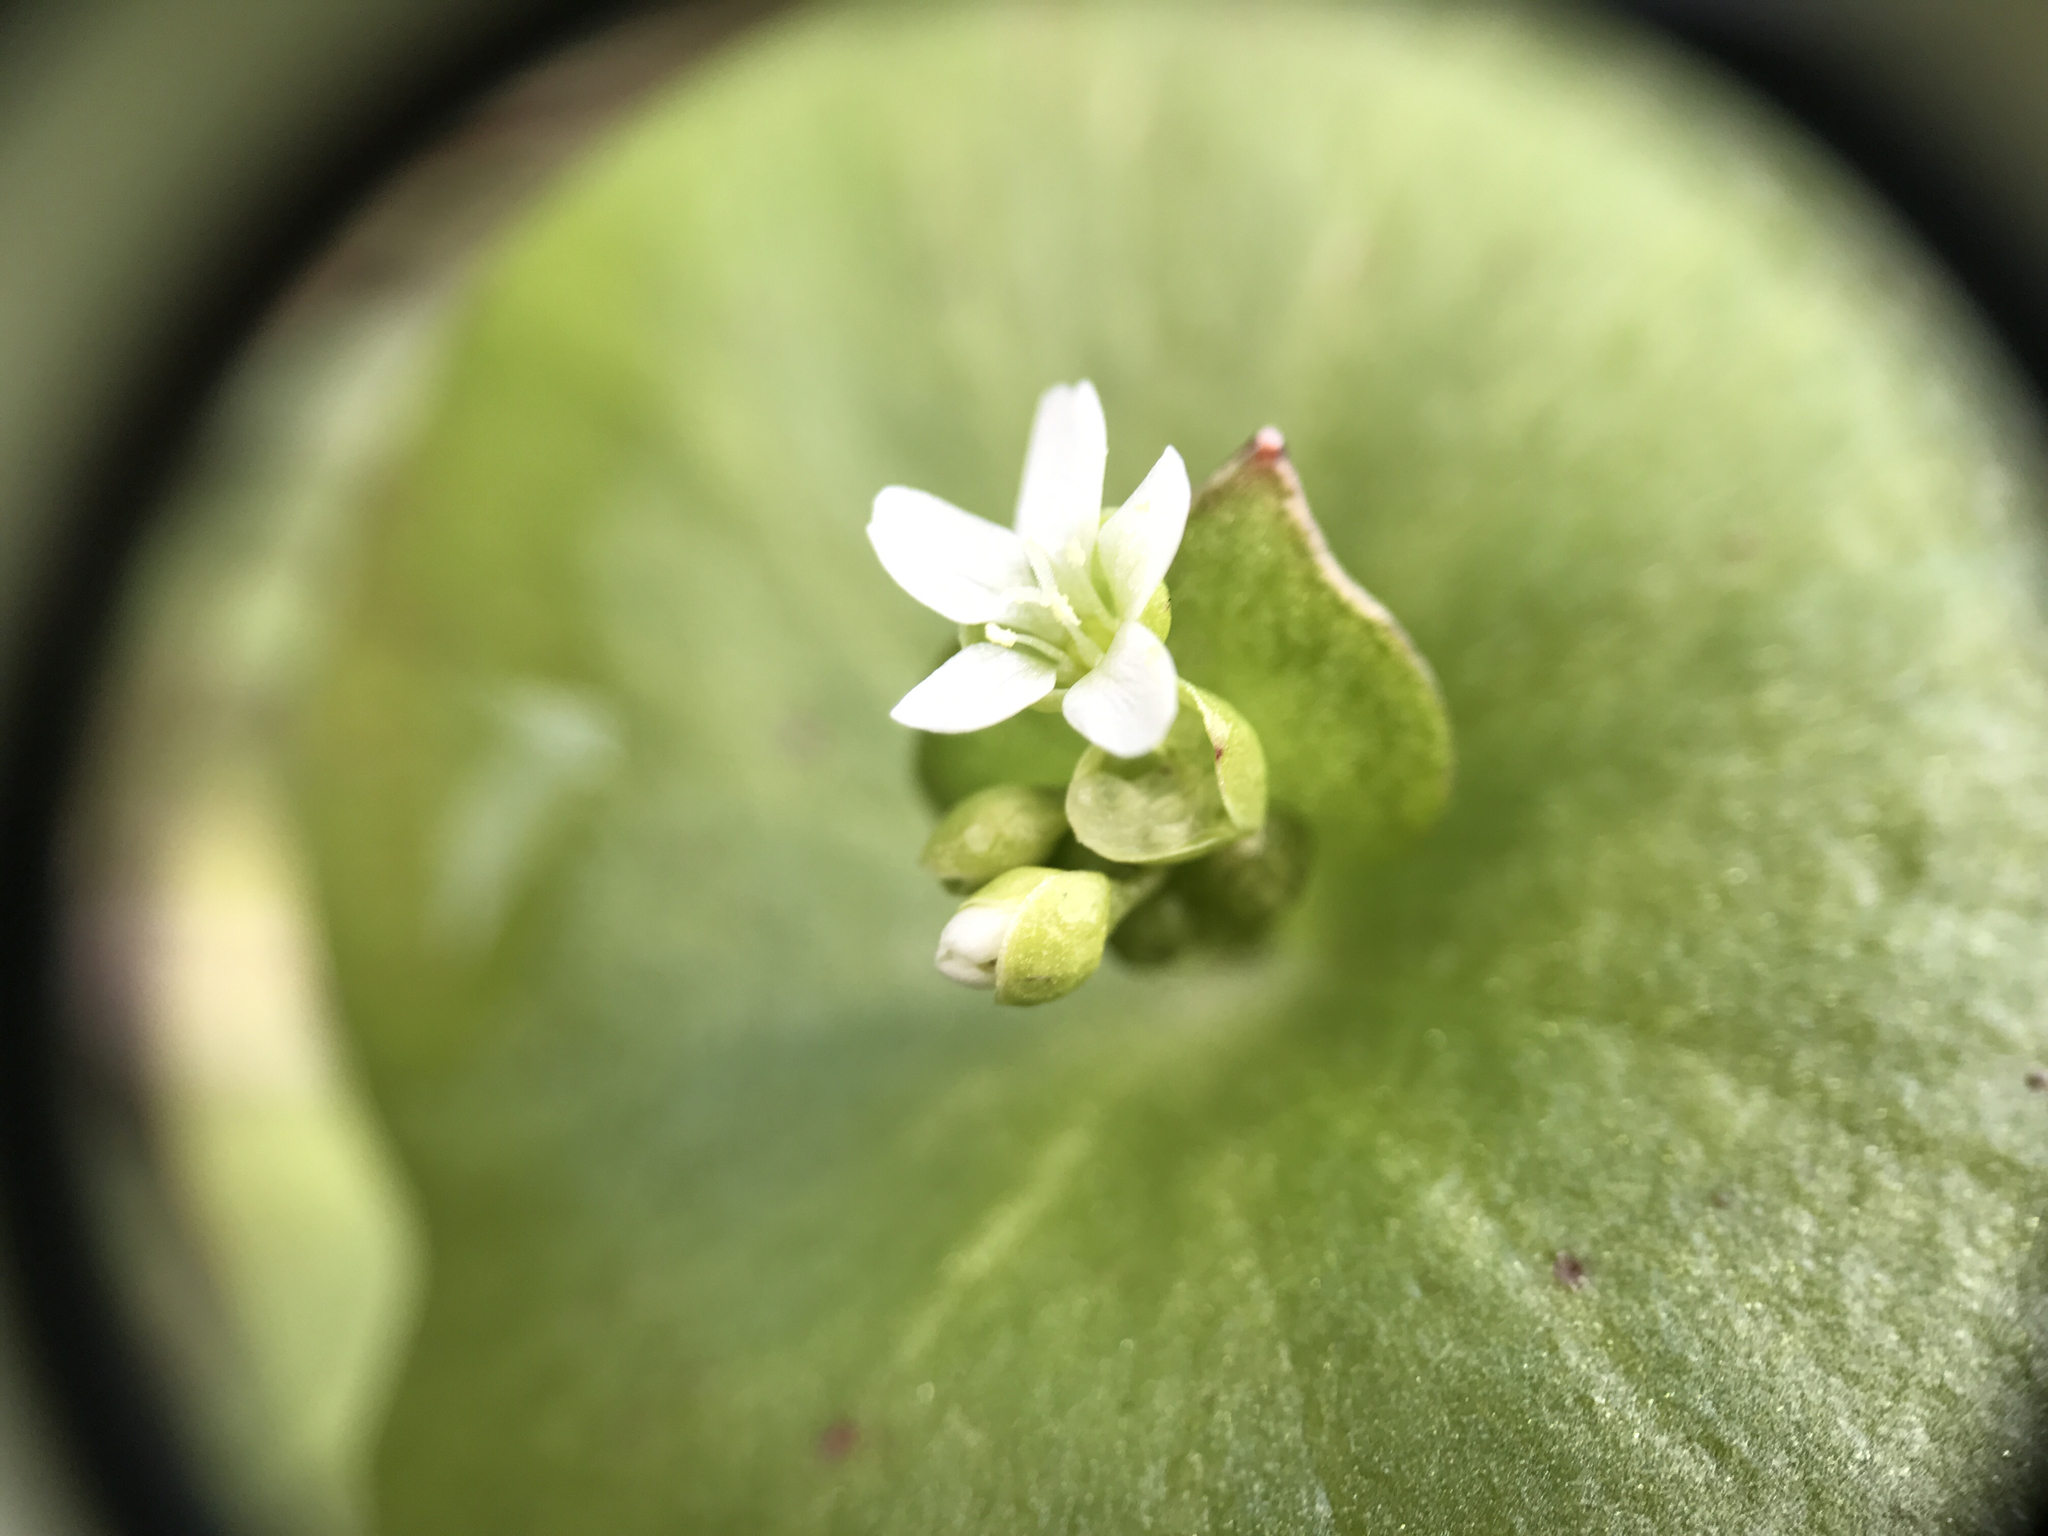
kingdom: Plantae
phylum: Tracheophyta
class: Magnoliopsida
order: Caryophyllales
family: Montiaceae
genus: Claytonia
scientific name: Claytonia perfoliata
